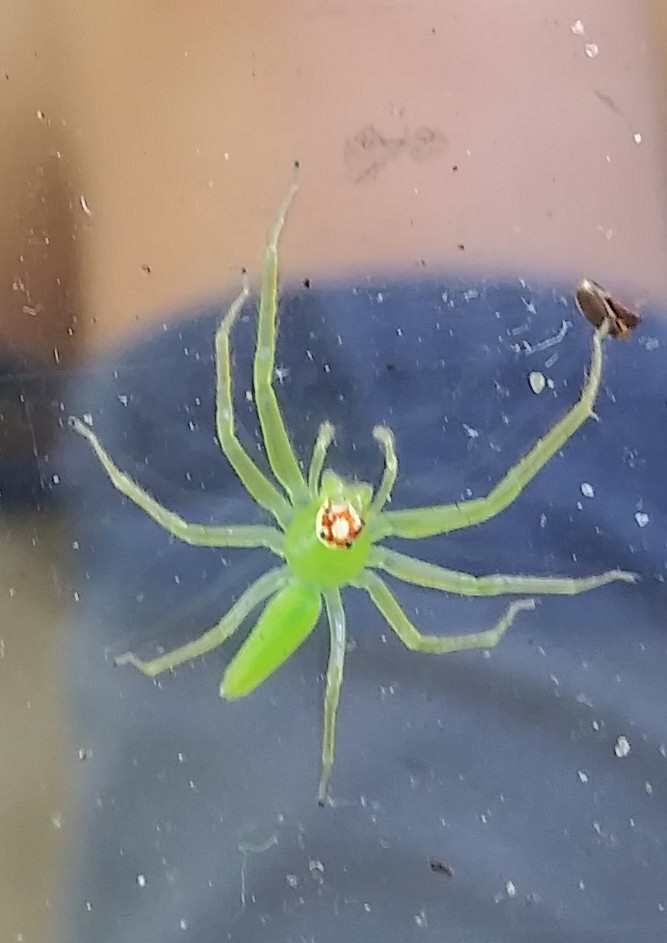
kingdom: Animalia
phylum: Arthropoda
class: Arachnida
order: Araneae
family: Salticidae
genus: Lyssomanes
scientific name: Lyssomanes viridis
